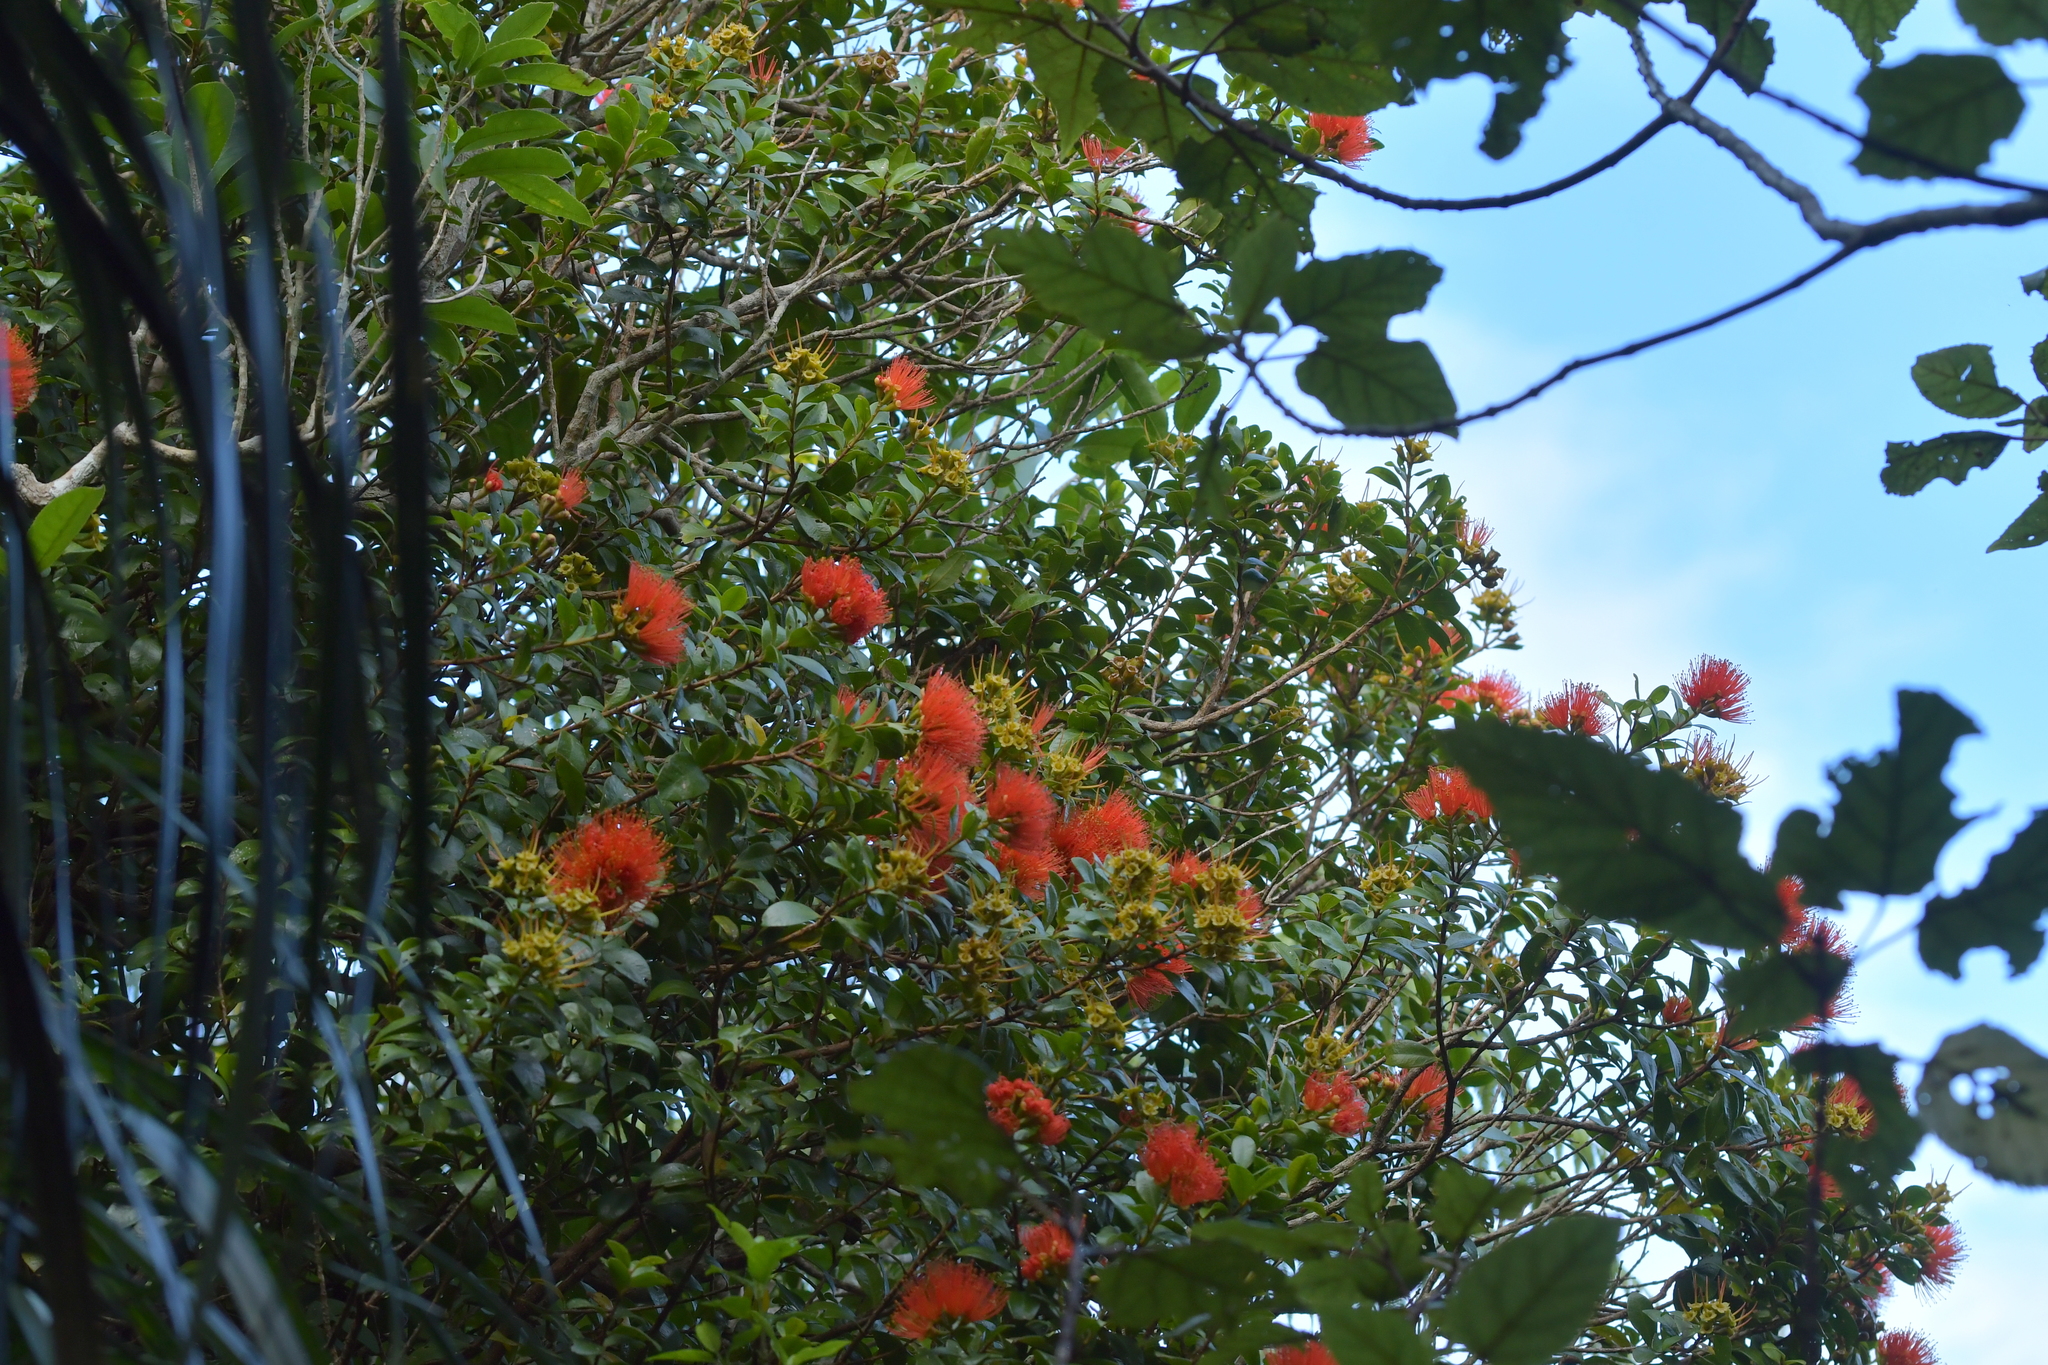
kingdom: Plantae
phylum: Tracheophyta
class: Magnoliopsida
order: Myrtales
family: Myrtaceae
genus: Metrosideros
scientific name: Metrosideros fulgens
